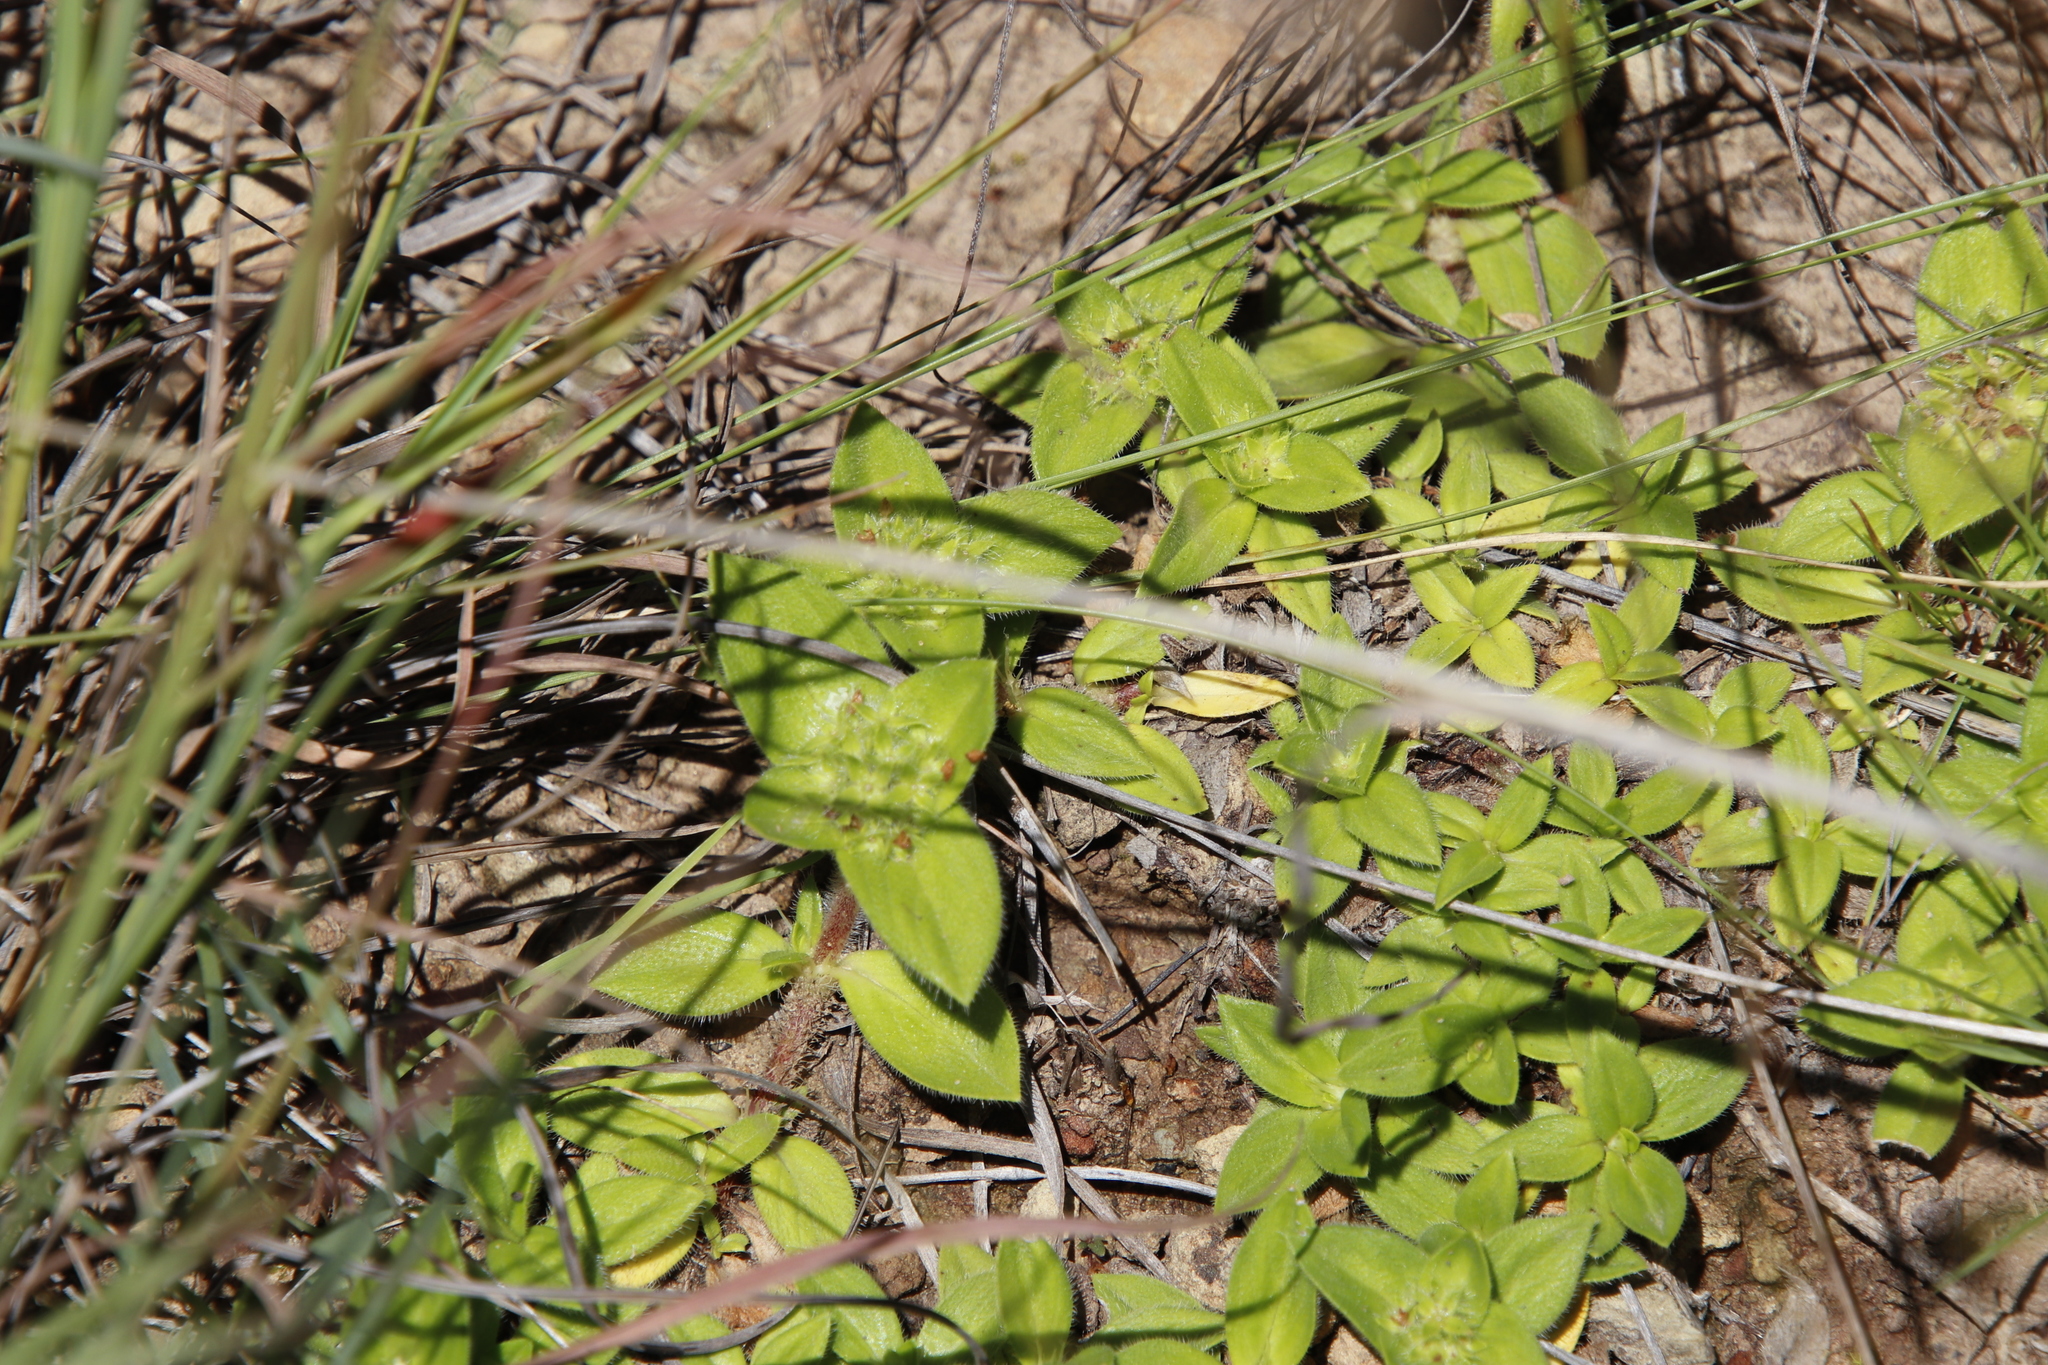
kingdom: Plantae
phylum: Tracheophyta
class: Magnoliopsida
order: Gentianales
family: Rubiaceae
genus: Richardia
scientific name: Richardia brasiliensis
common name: Tropical mexican clover
